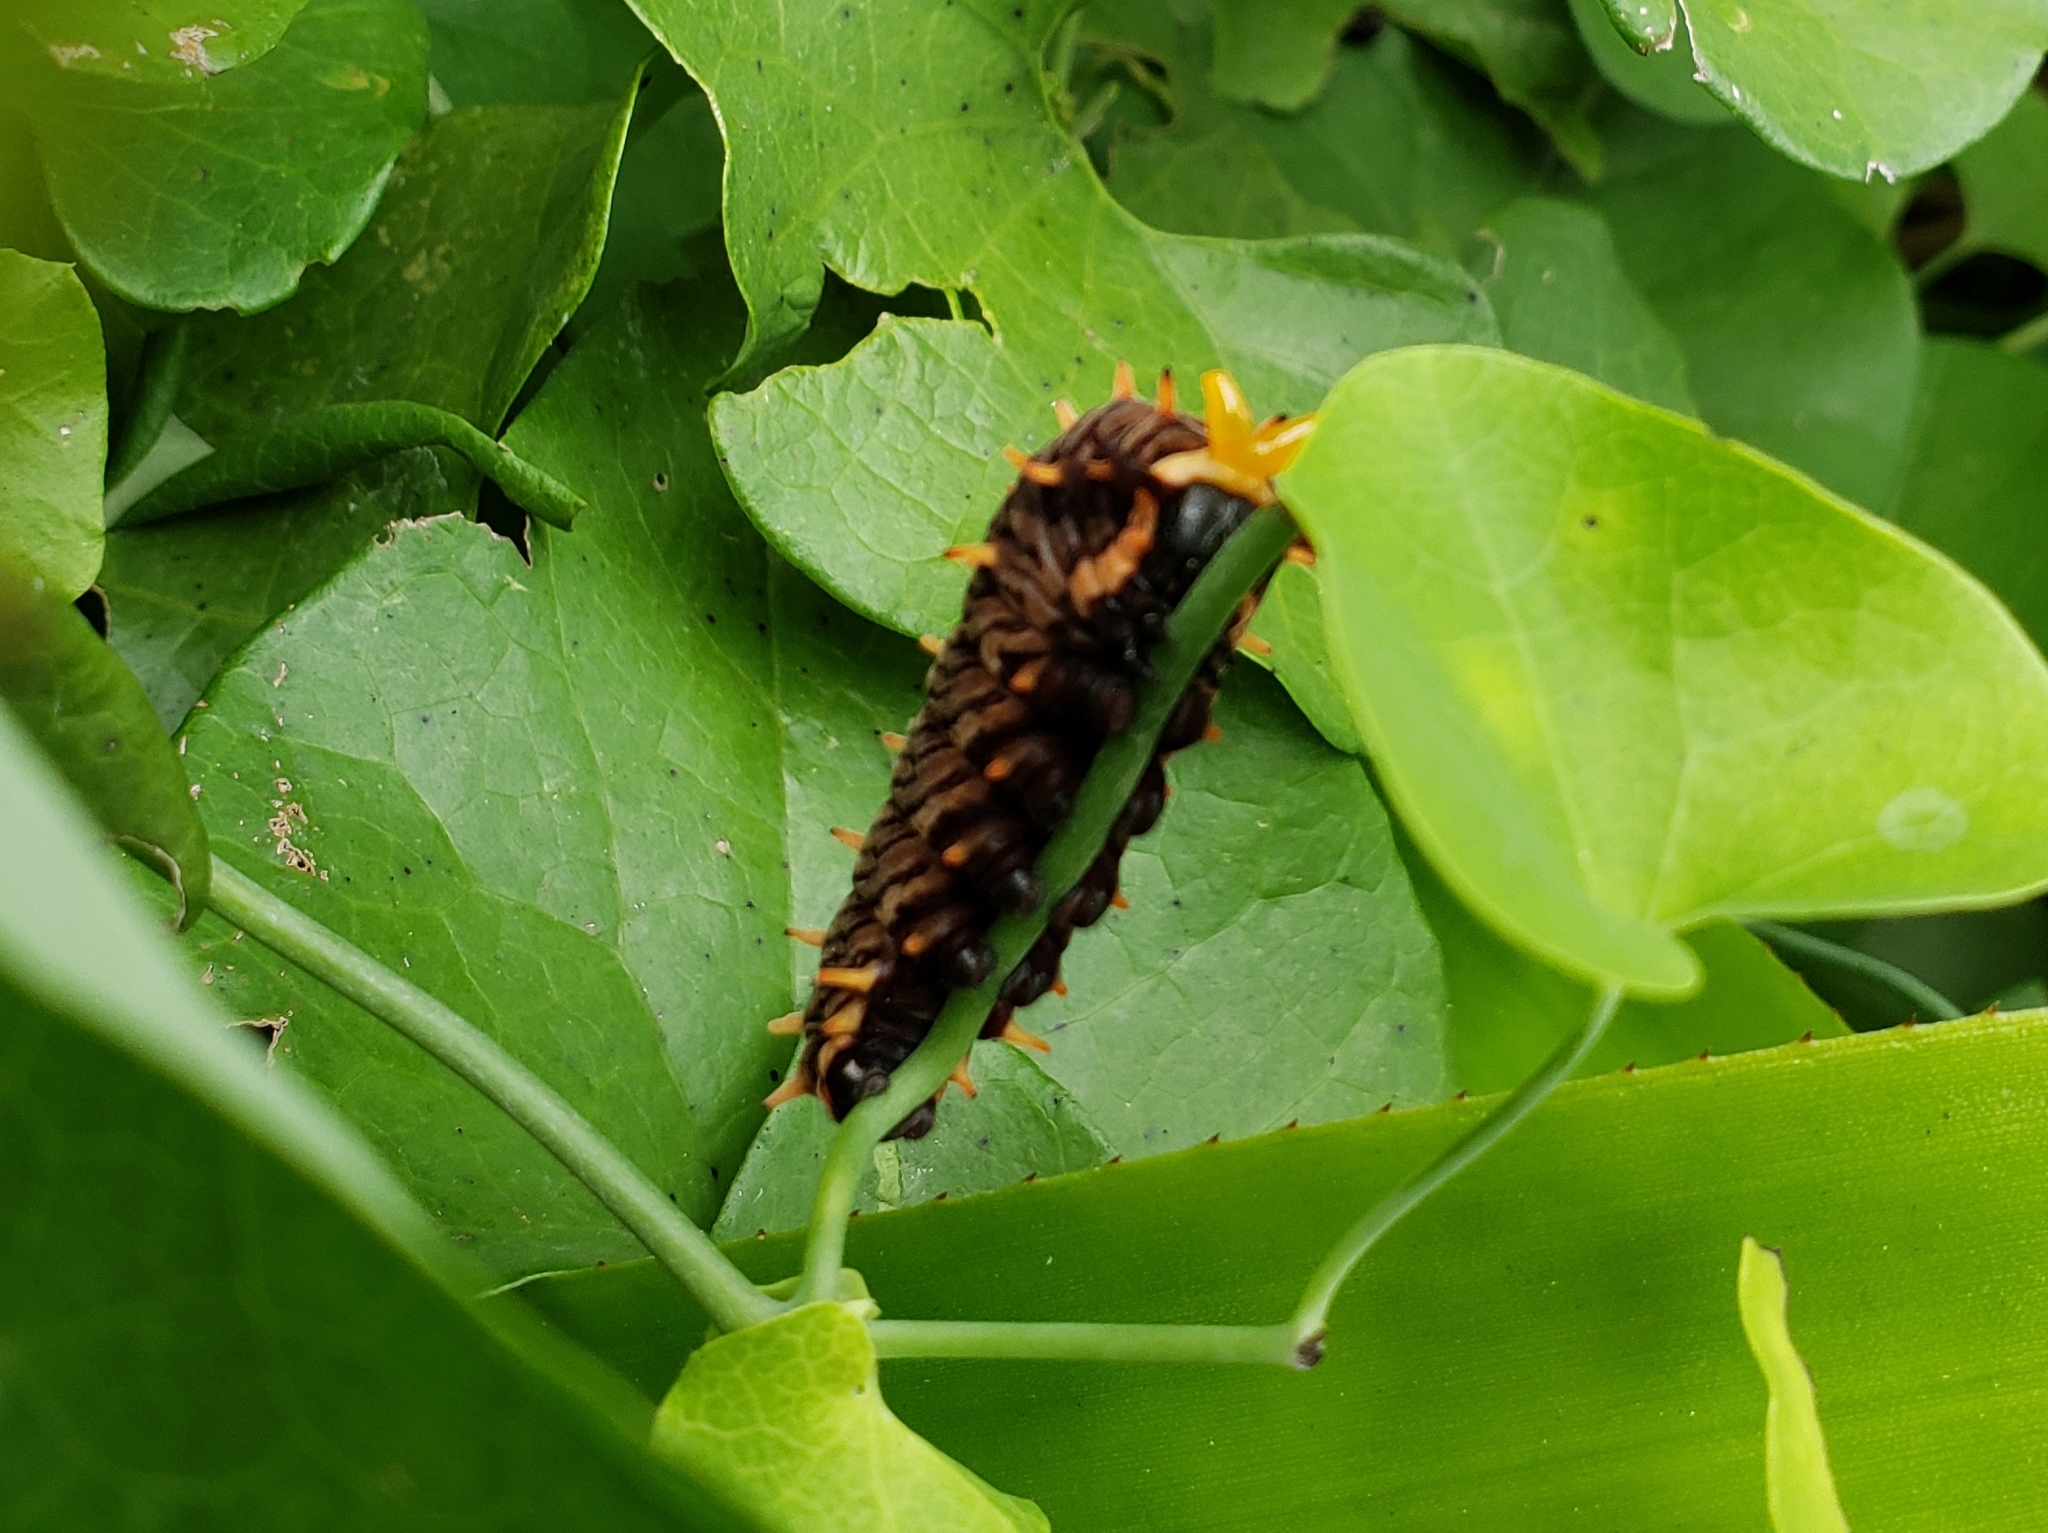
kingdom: Animalia
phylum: Arthropoda
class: Insecta
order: Lepidoptera
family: Papilionidae
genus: Battus
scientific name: Battus polydamas
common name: Polydamas swallowtail
